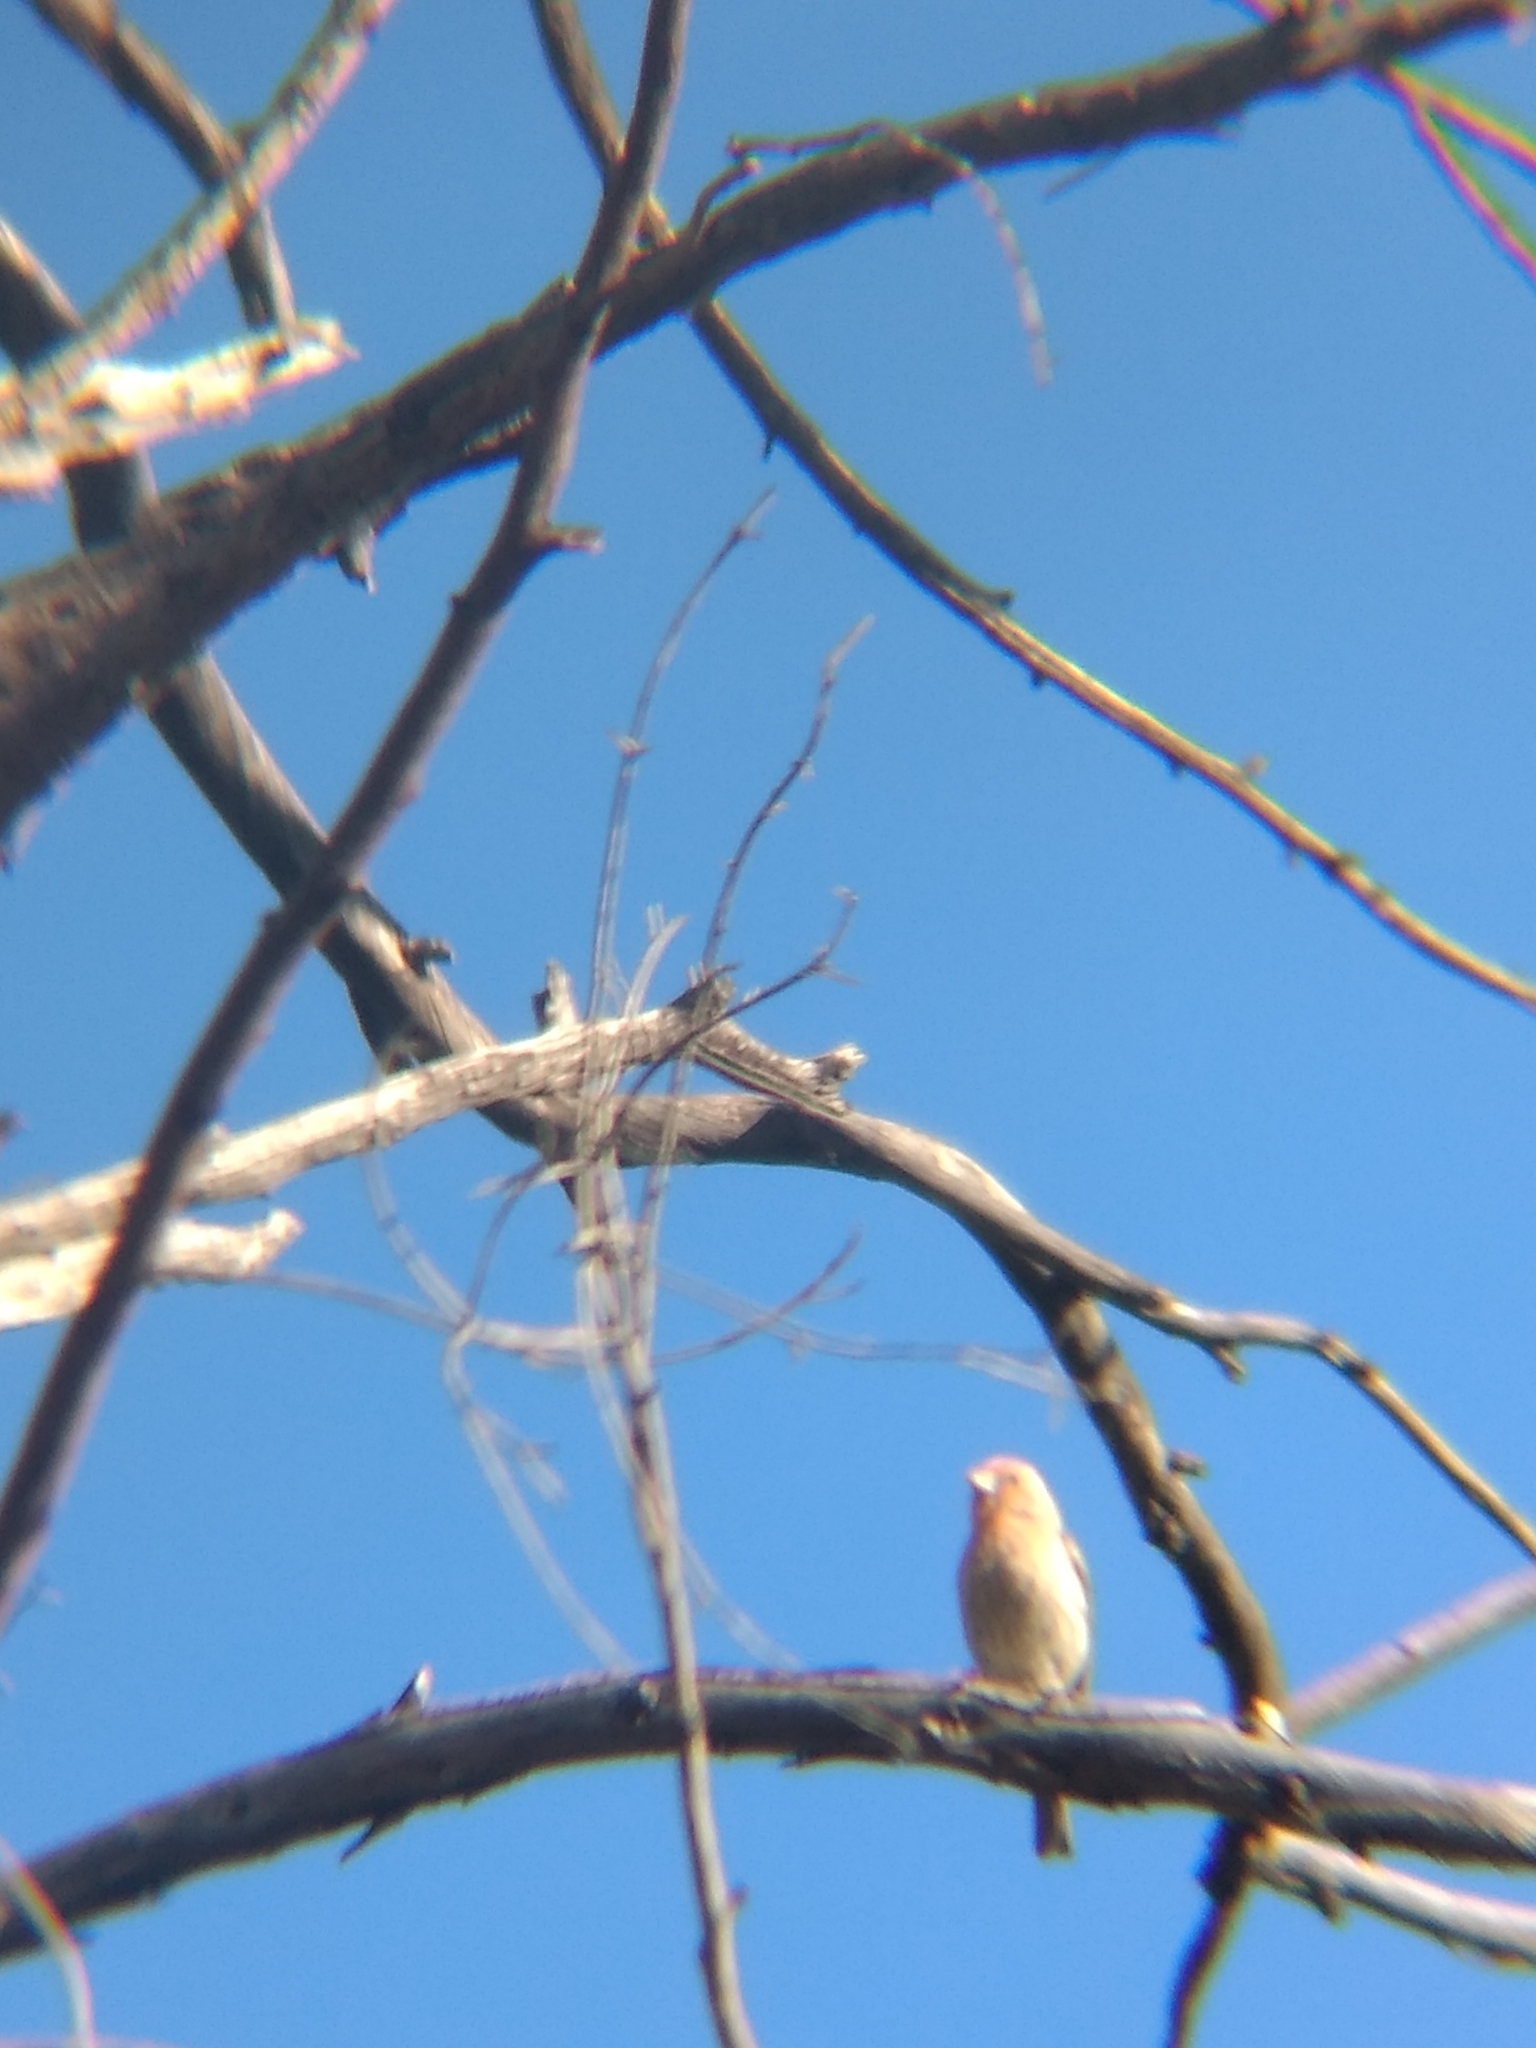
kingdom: Animalia
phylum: Chordata
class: Aves
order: Passeriformes
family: Fringillidae
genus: Haemorhous
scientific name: Haemorhous mexicanus
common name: House finch
